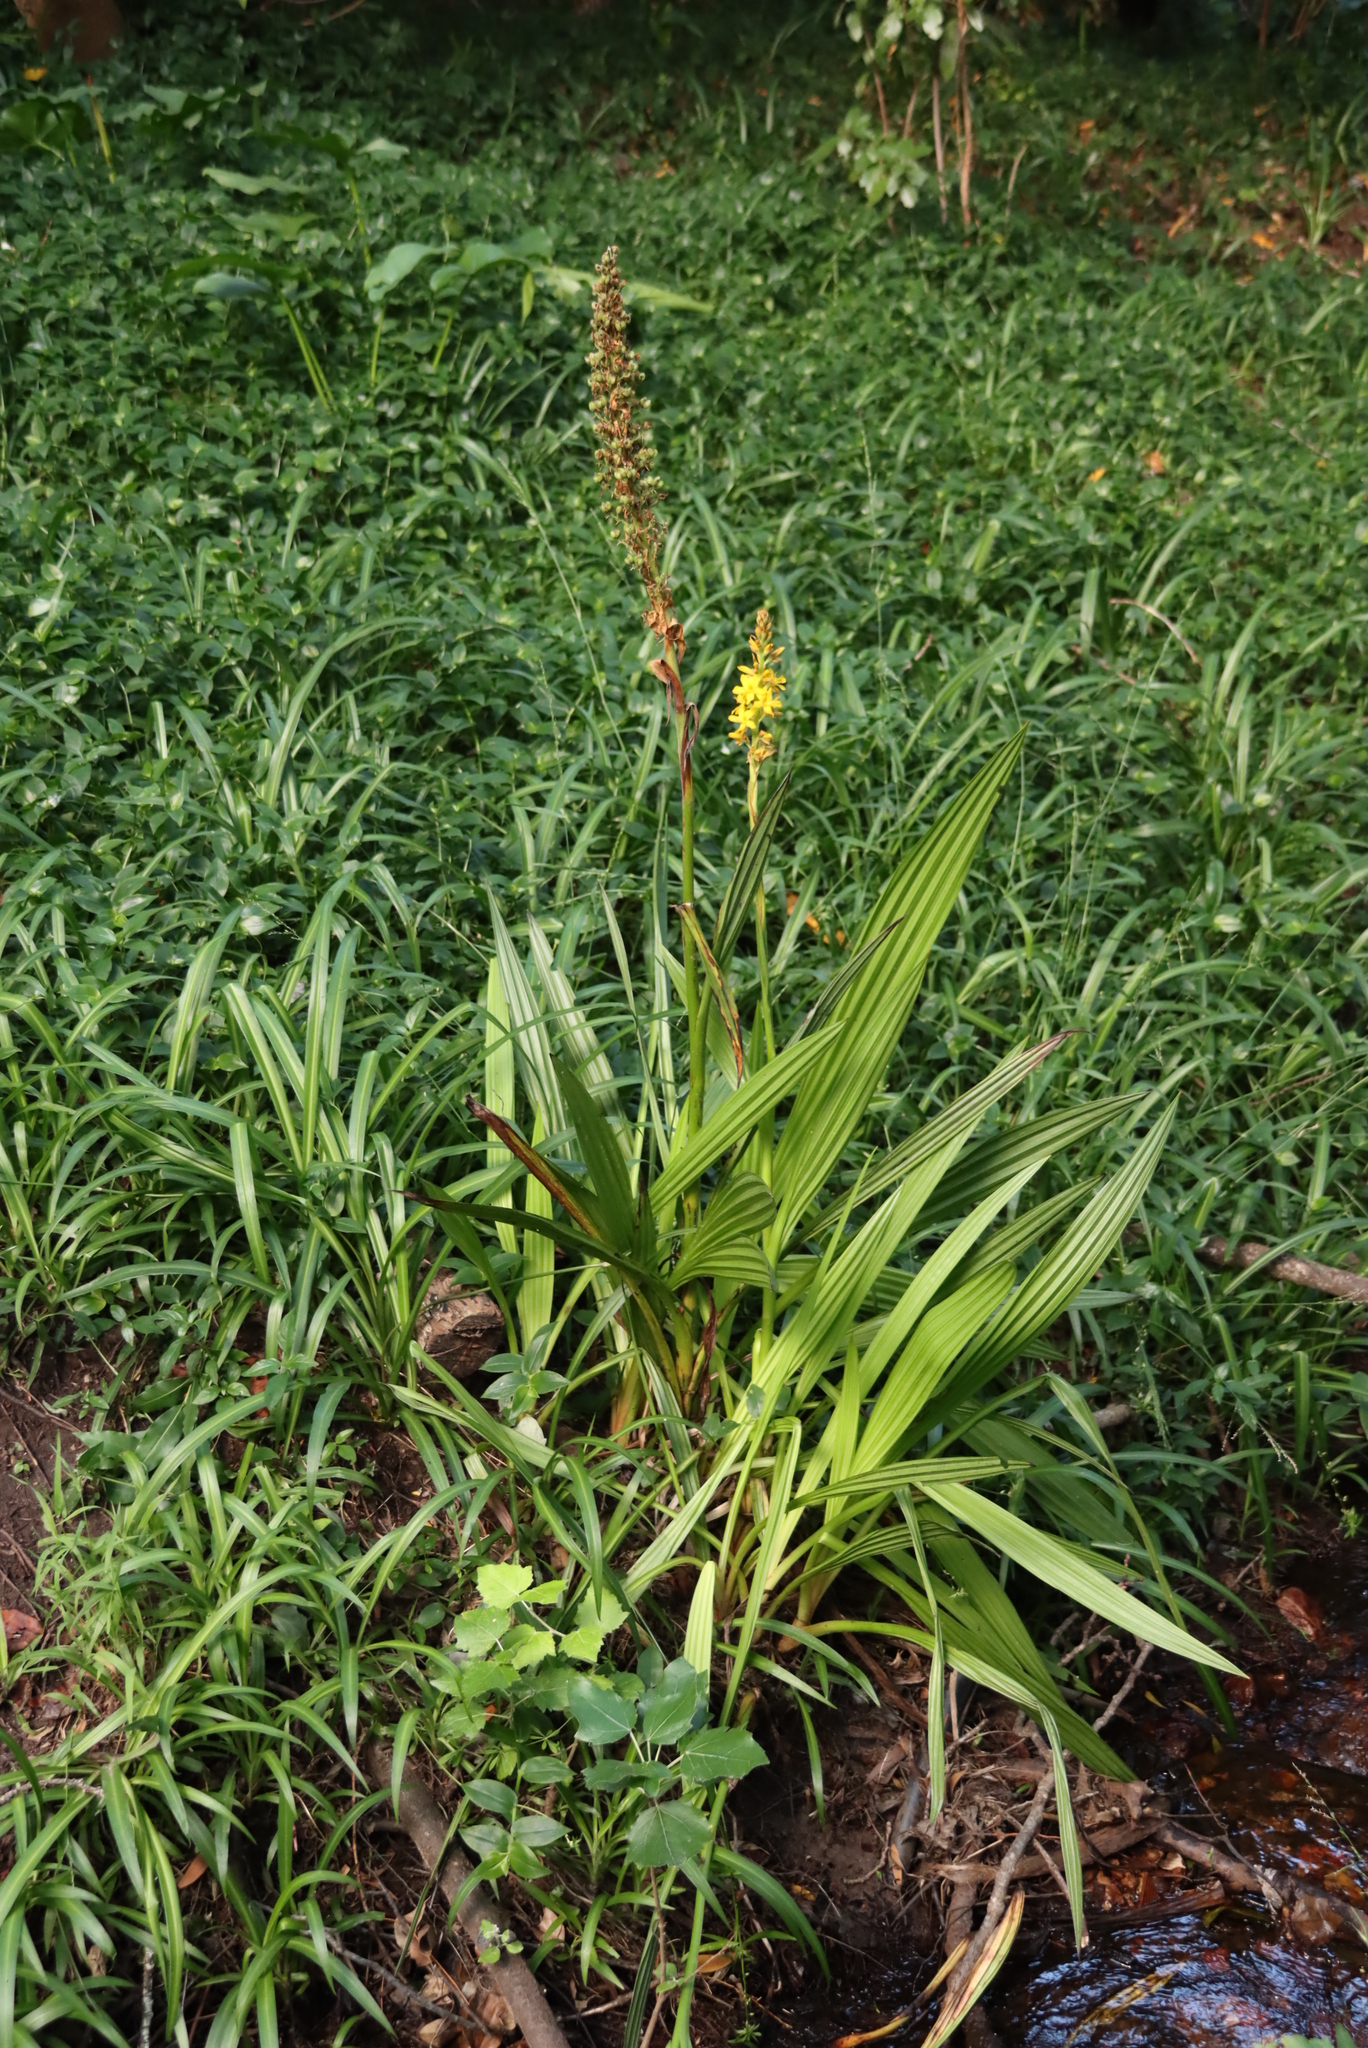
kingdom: Plantae
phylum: Tracheophyta
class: Liliopsida
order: Commelinales
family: Haemodoraceae
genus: Wachendorfia
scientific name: Wachendorfia thyrsiflora
